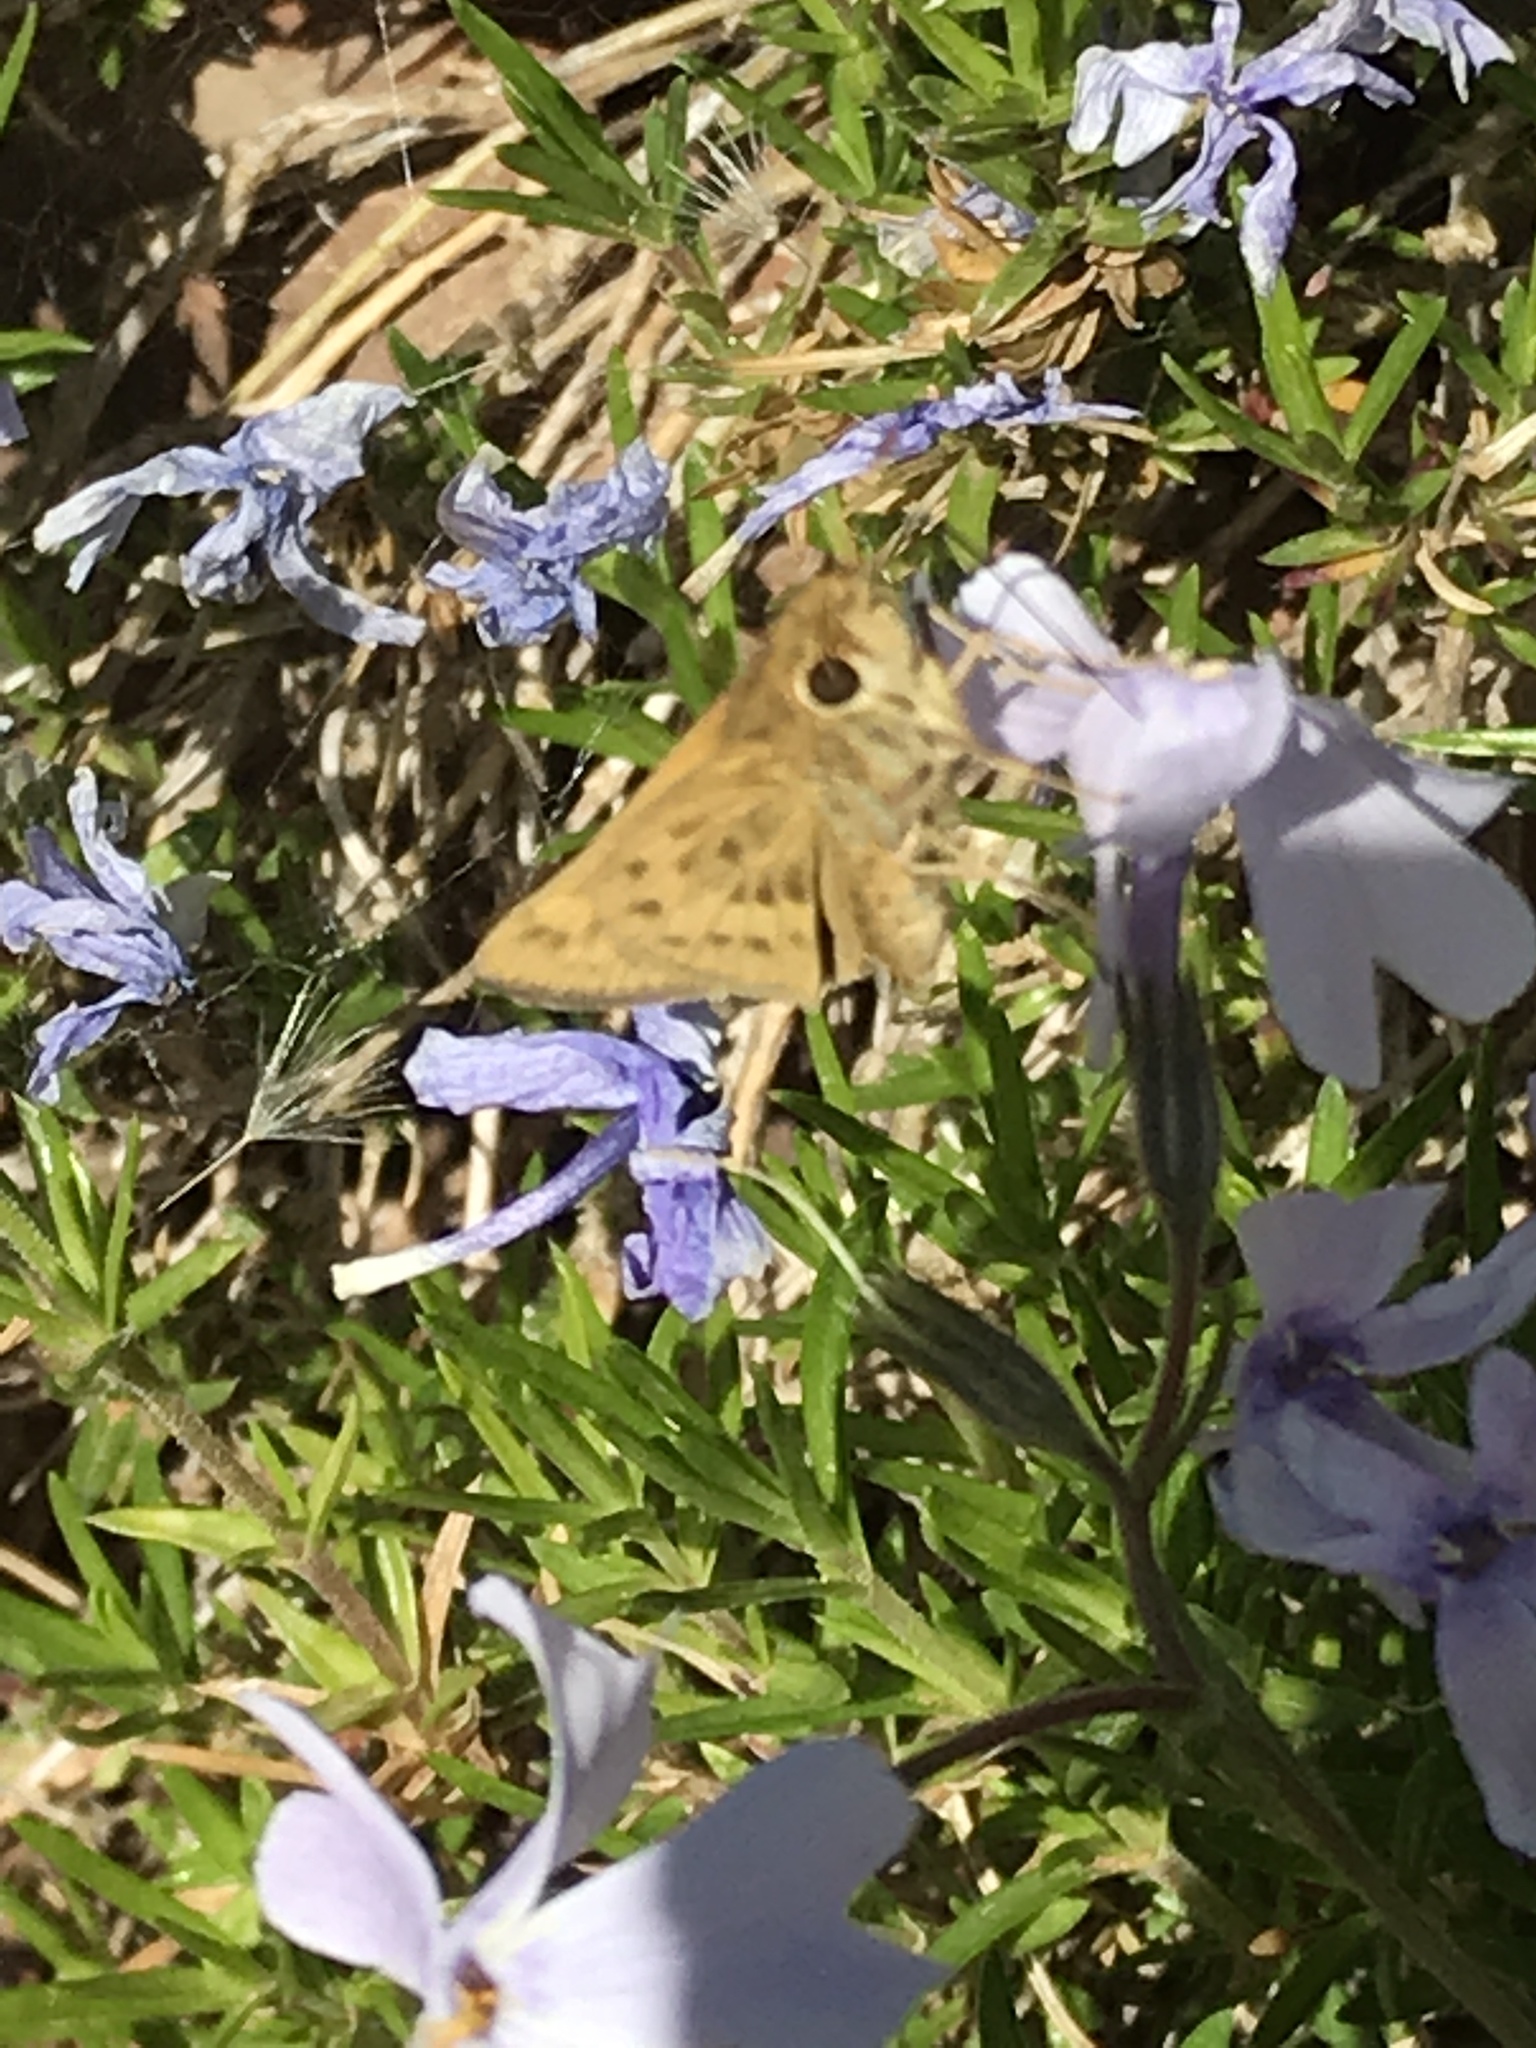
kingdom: Animalia
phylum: Arthropoda
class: Insecta
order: Lepidoptera
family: Hesperiidae
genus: Hylephila
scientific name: Hylephila phyleus
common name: Fiery skipper
